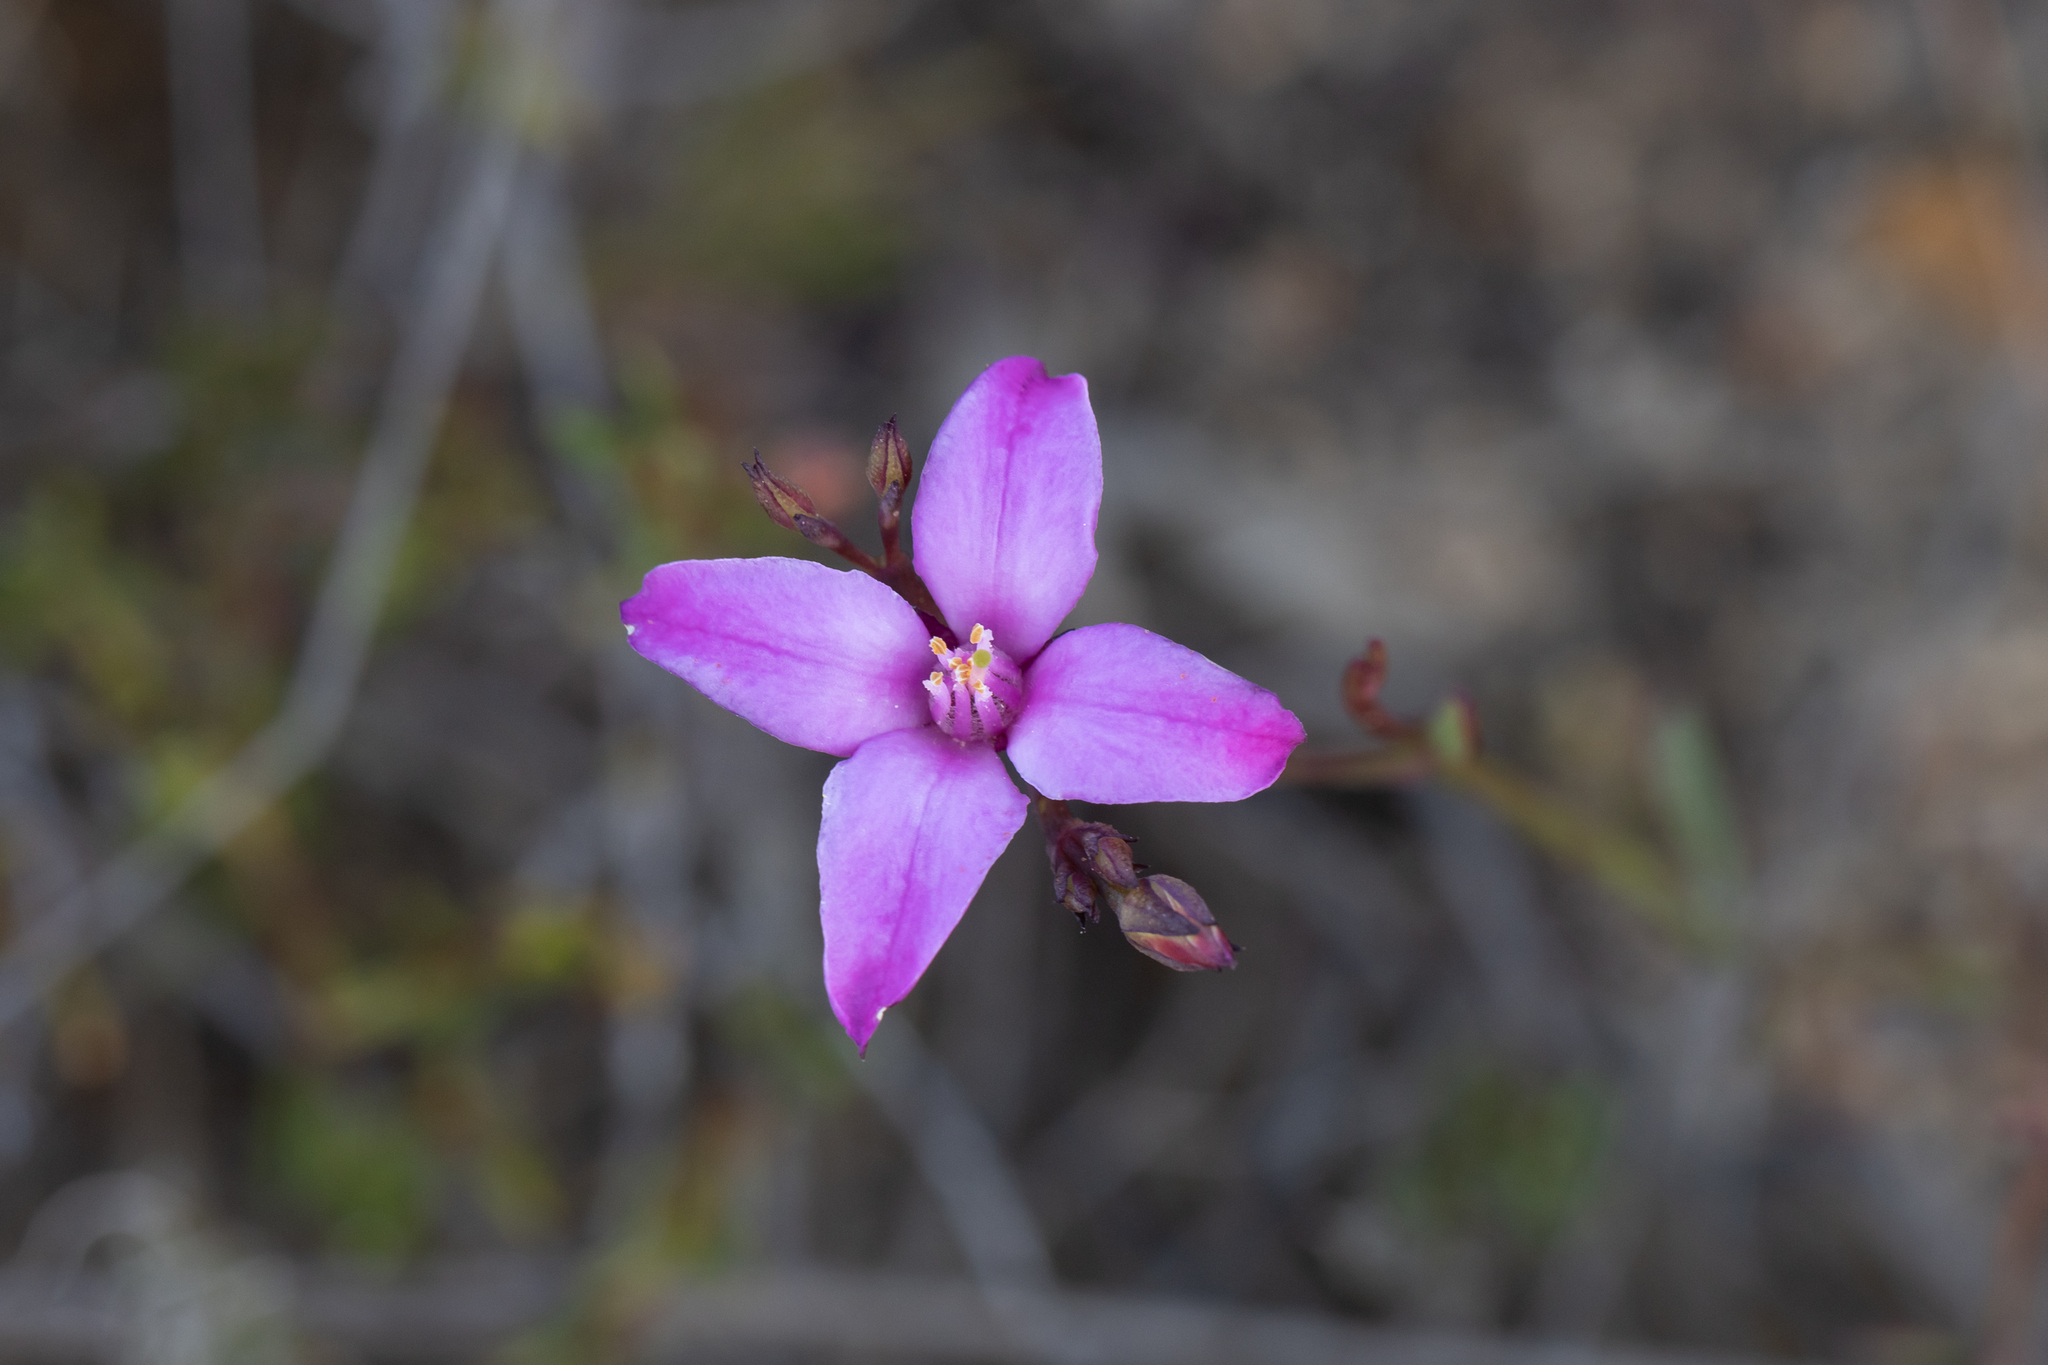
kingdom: Plantae
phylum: Tracheophyta
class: Magnoliopsida
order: Sapindales
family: Rutaceae
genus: Boronia
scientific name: Boronia spathulata
